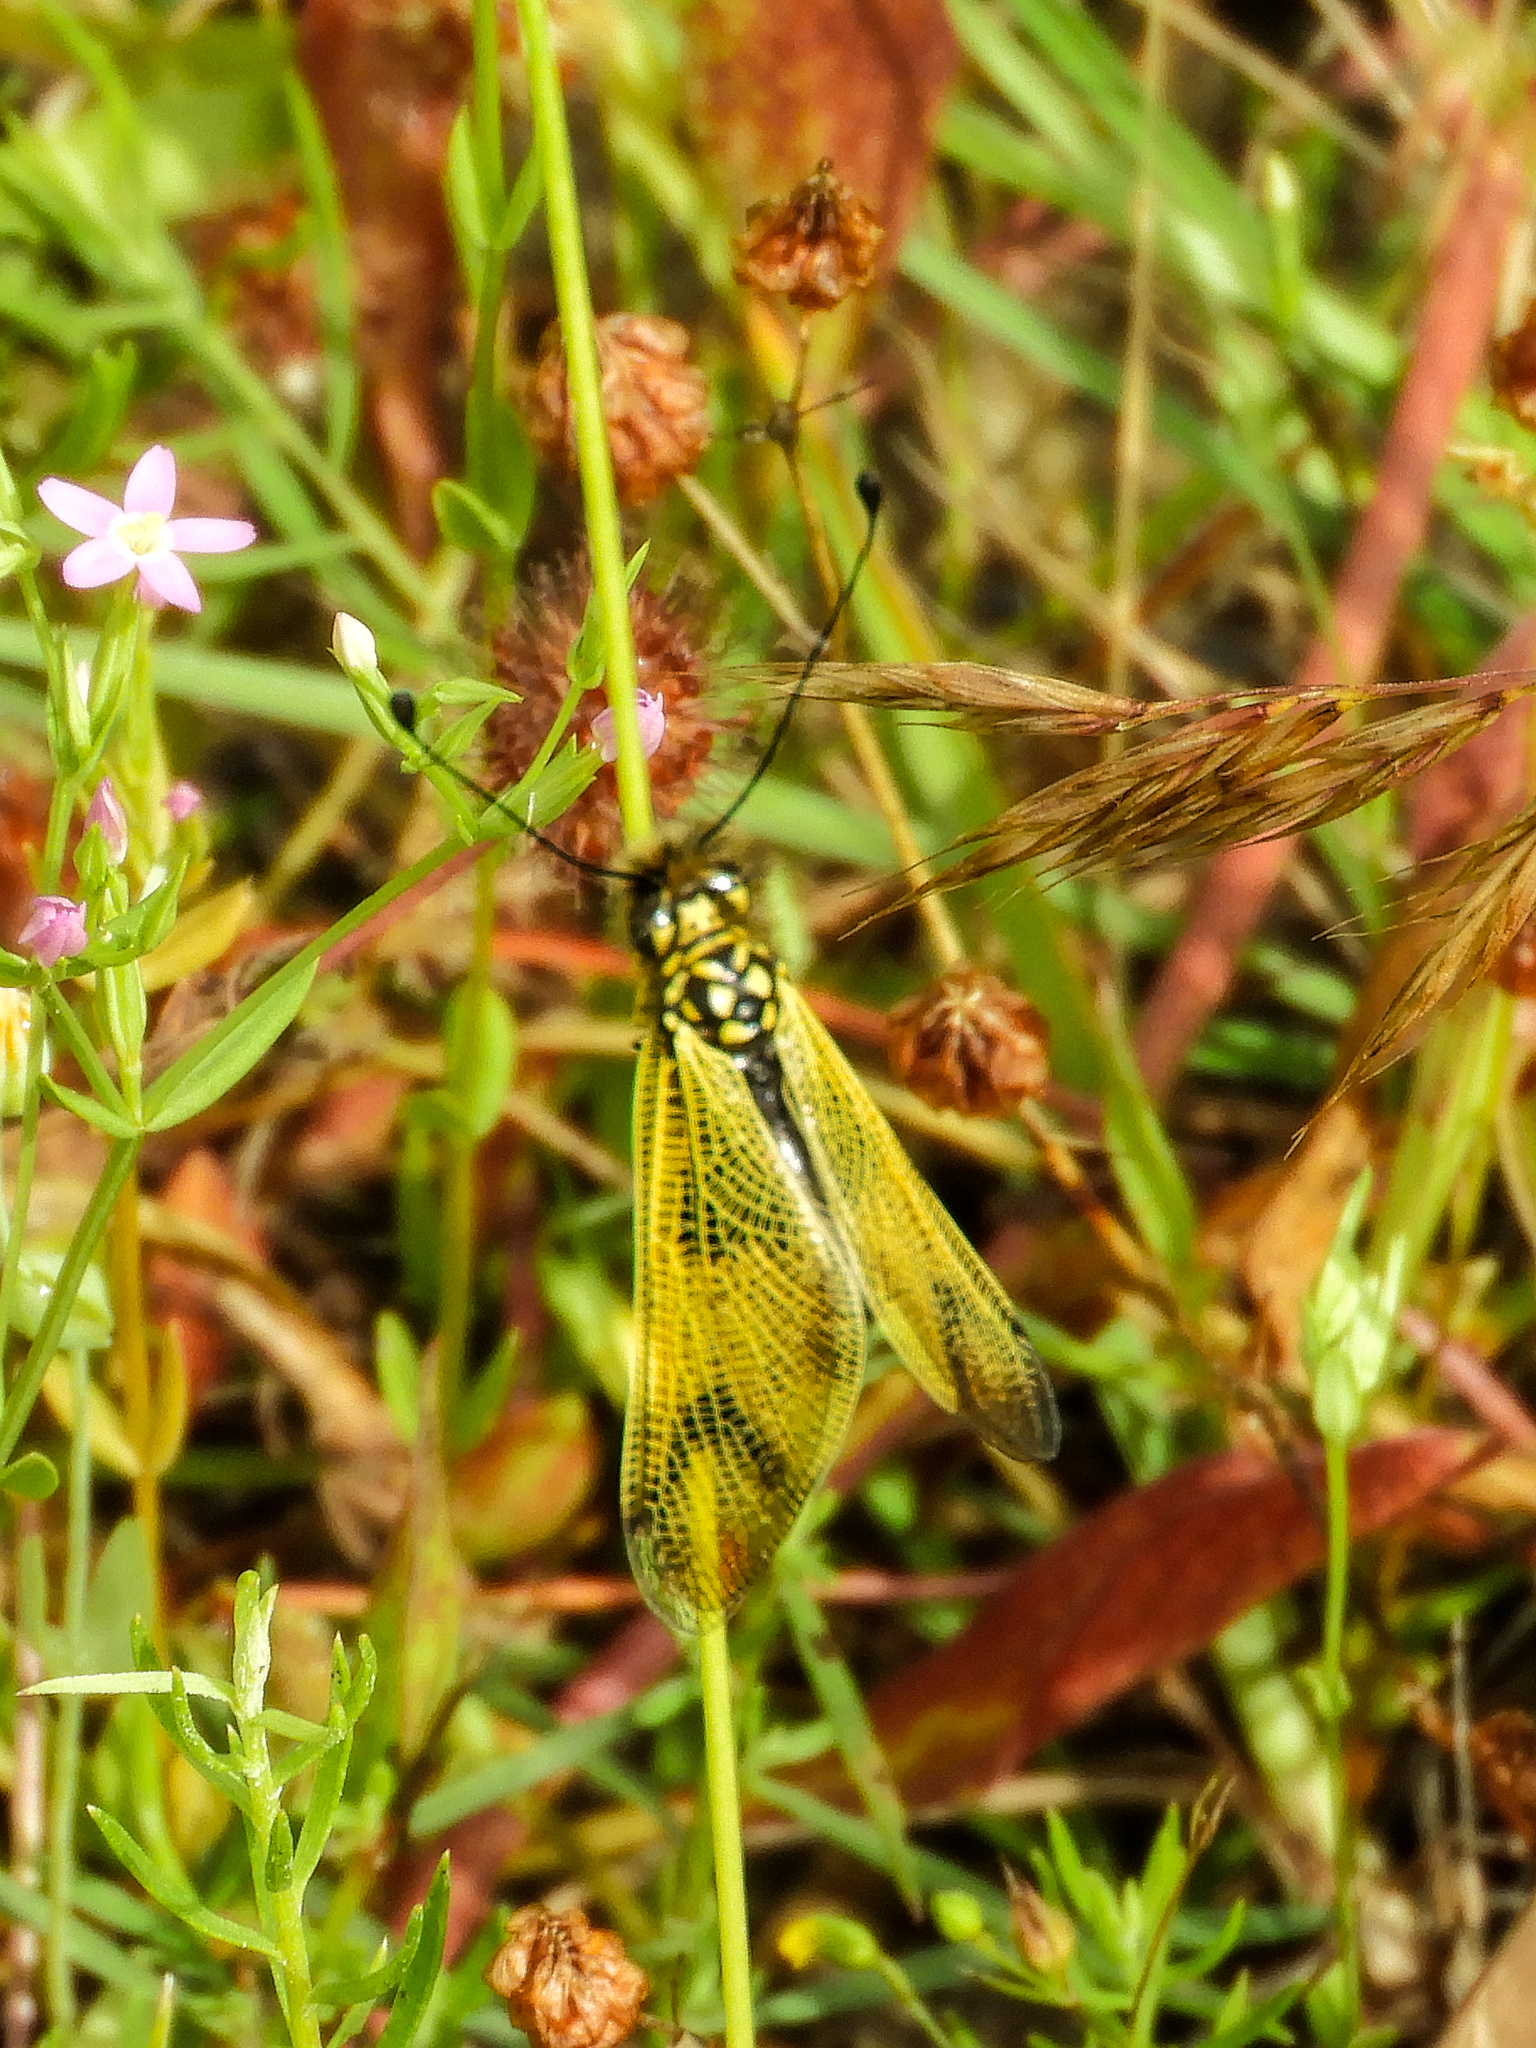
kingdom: Animalia
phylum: Arthropoda
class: Insecta
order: Neuroptera
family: Ascalaphidae
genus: Libelloides
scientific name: Libelloides longicornis
